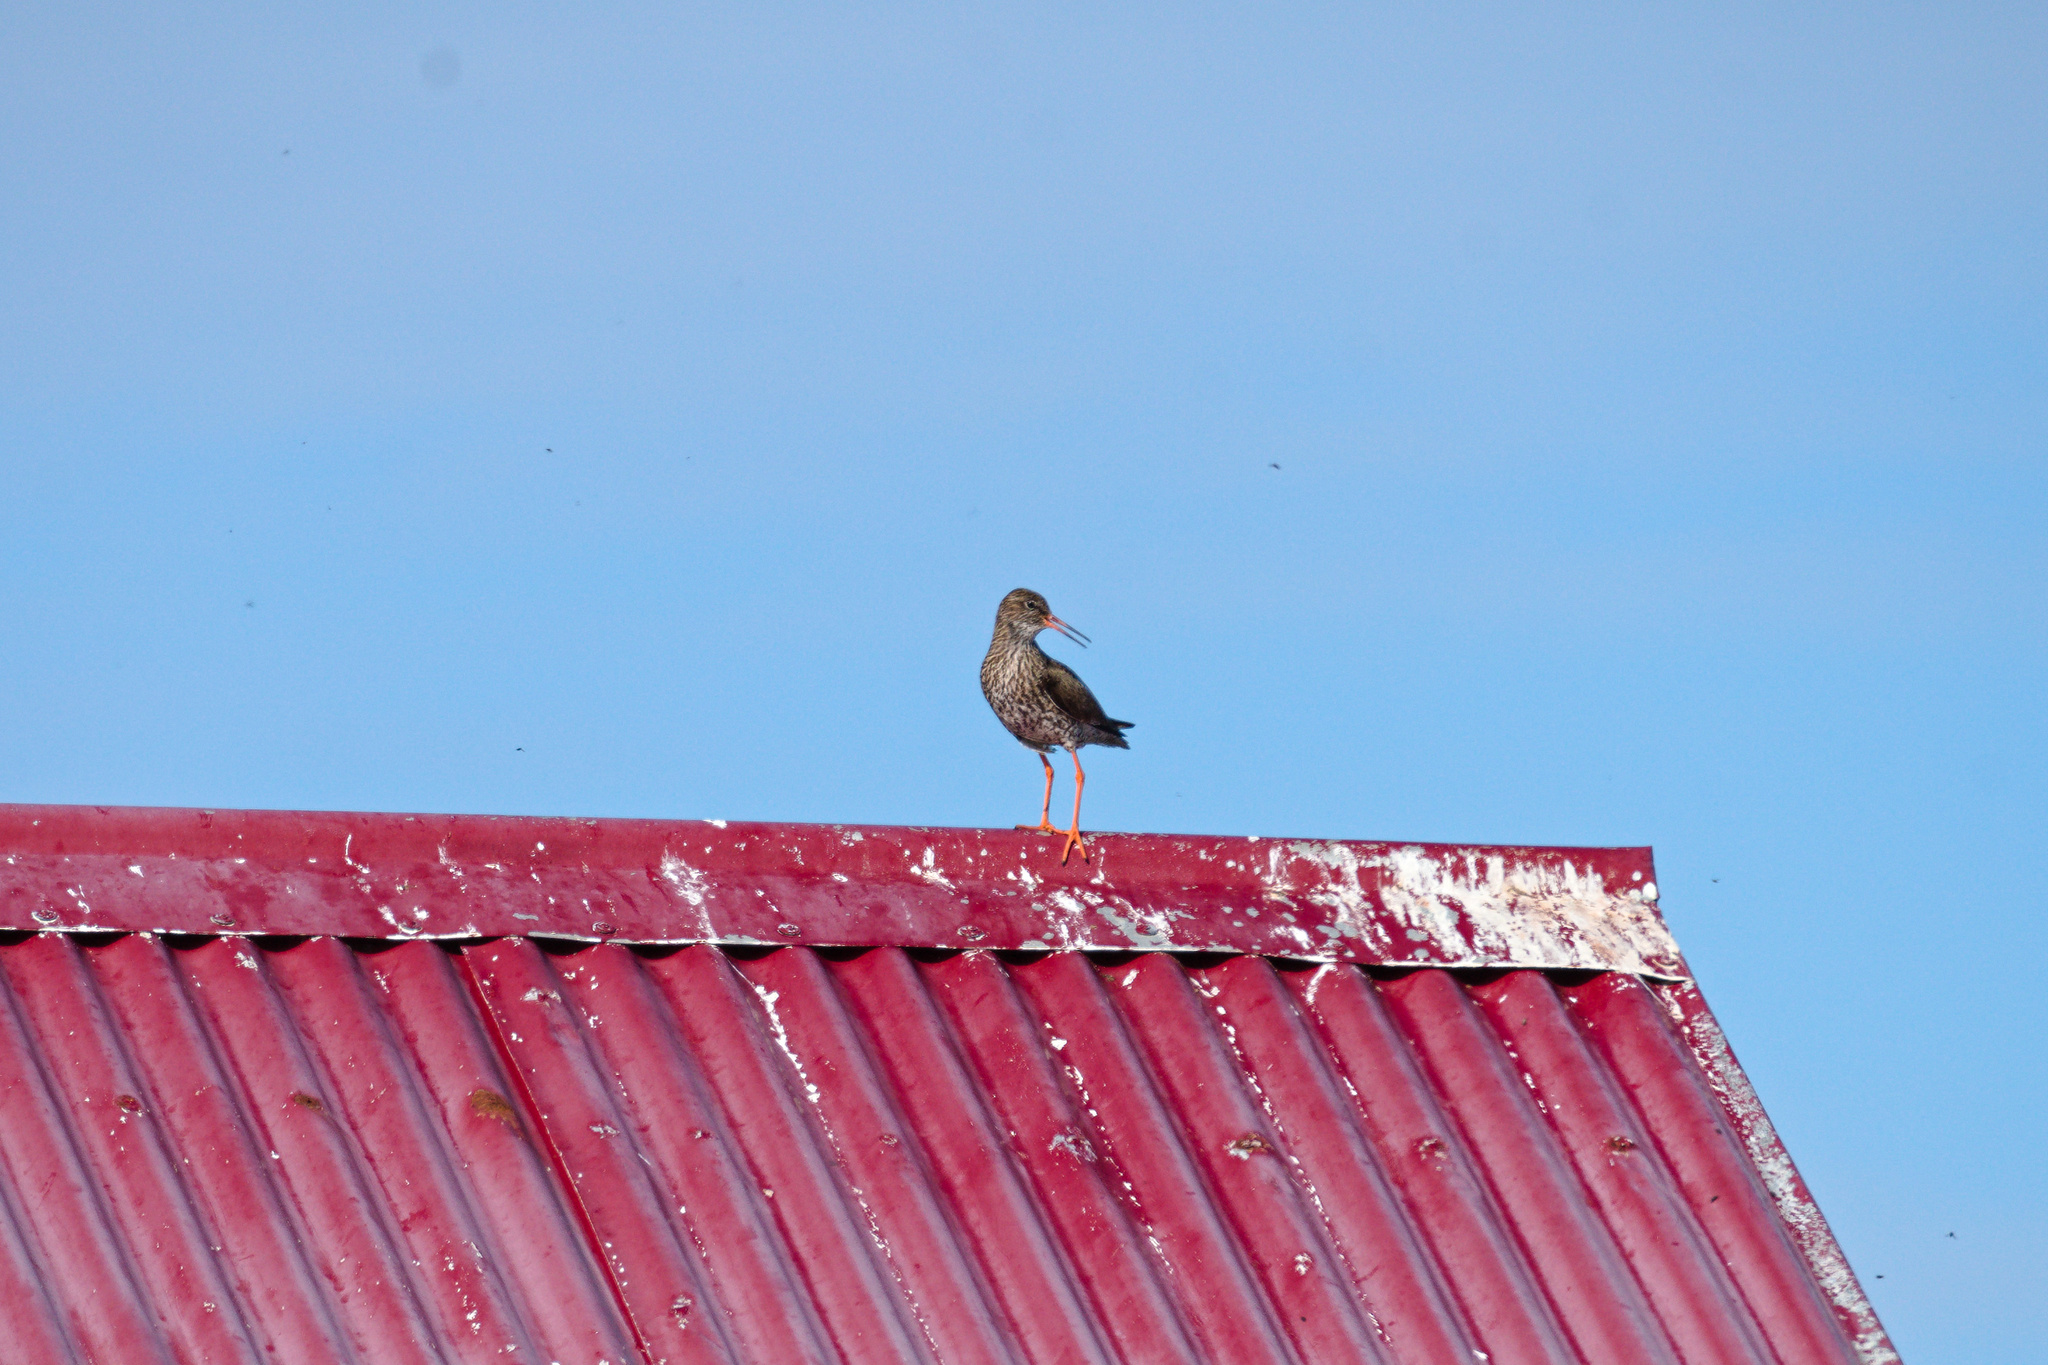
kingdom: Animalia
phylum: Chordata
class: Aves
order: Charadriiformes
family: Scolopacidae
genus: Tringa
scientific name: Tringa totanus
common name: Common redshank
